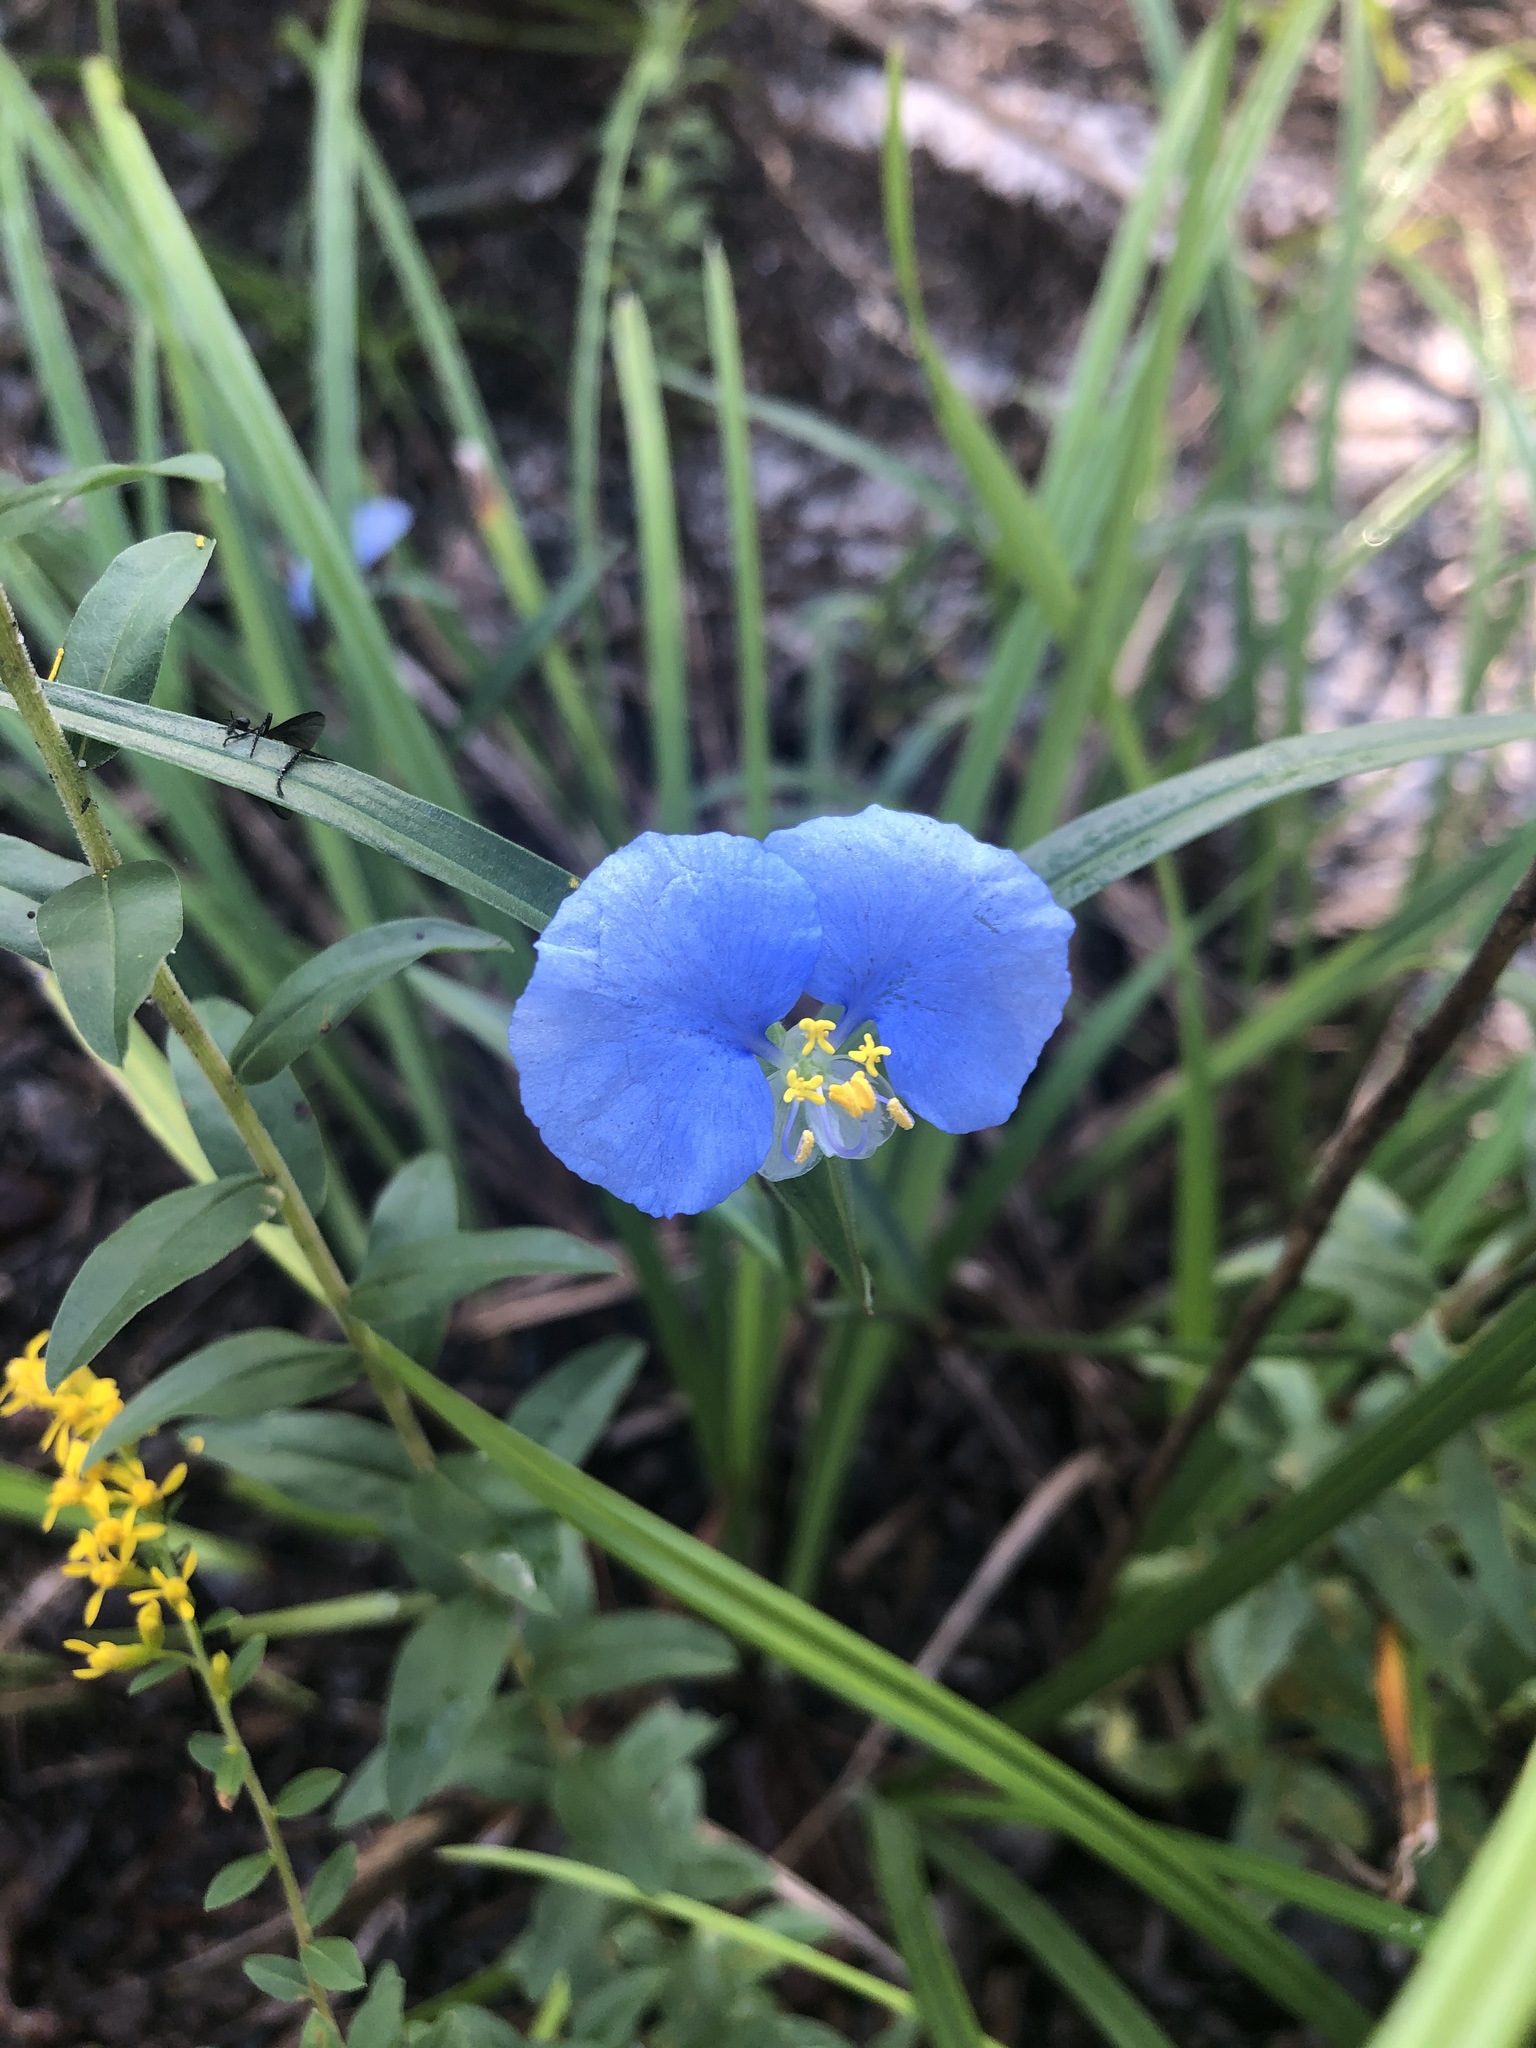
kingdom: Plantae
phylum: Tracheophyta
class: Liliopsida
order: Commelinales
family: Commelinaceae
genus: Commelina
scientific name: Commelina erecta
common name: Blousel blommetjie
